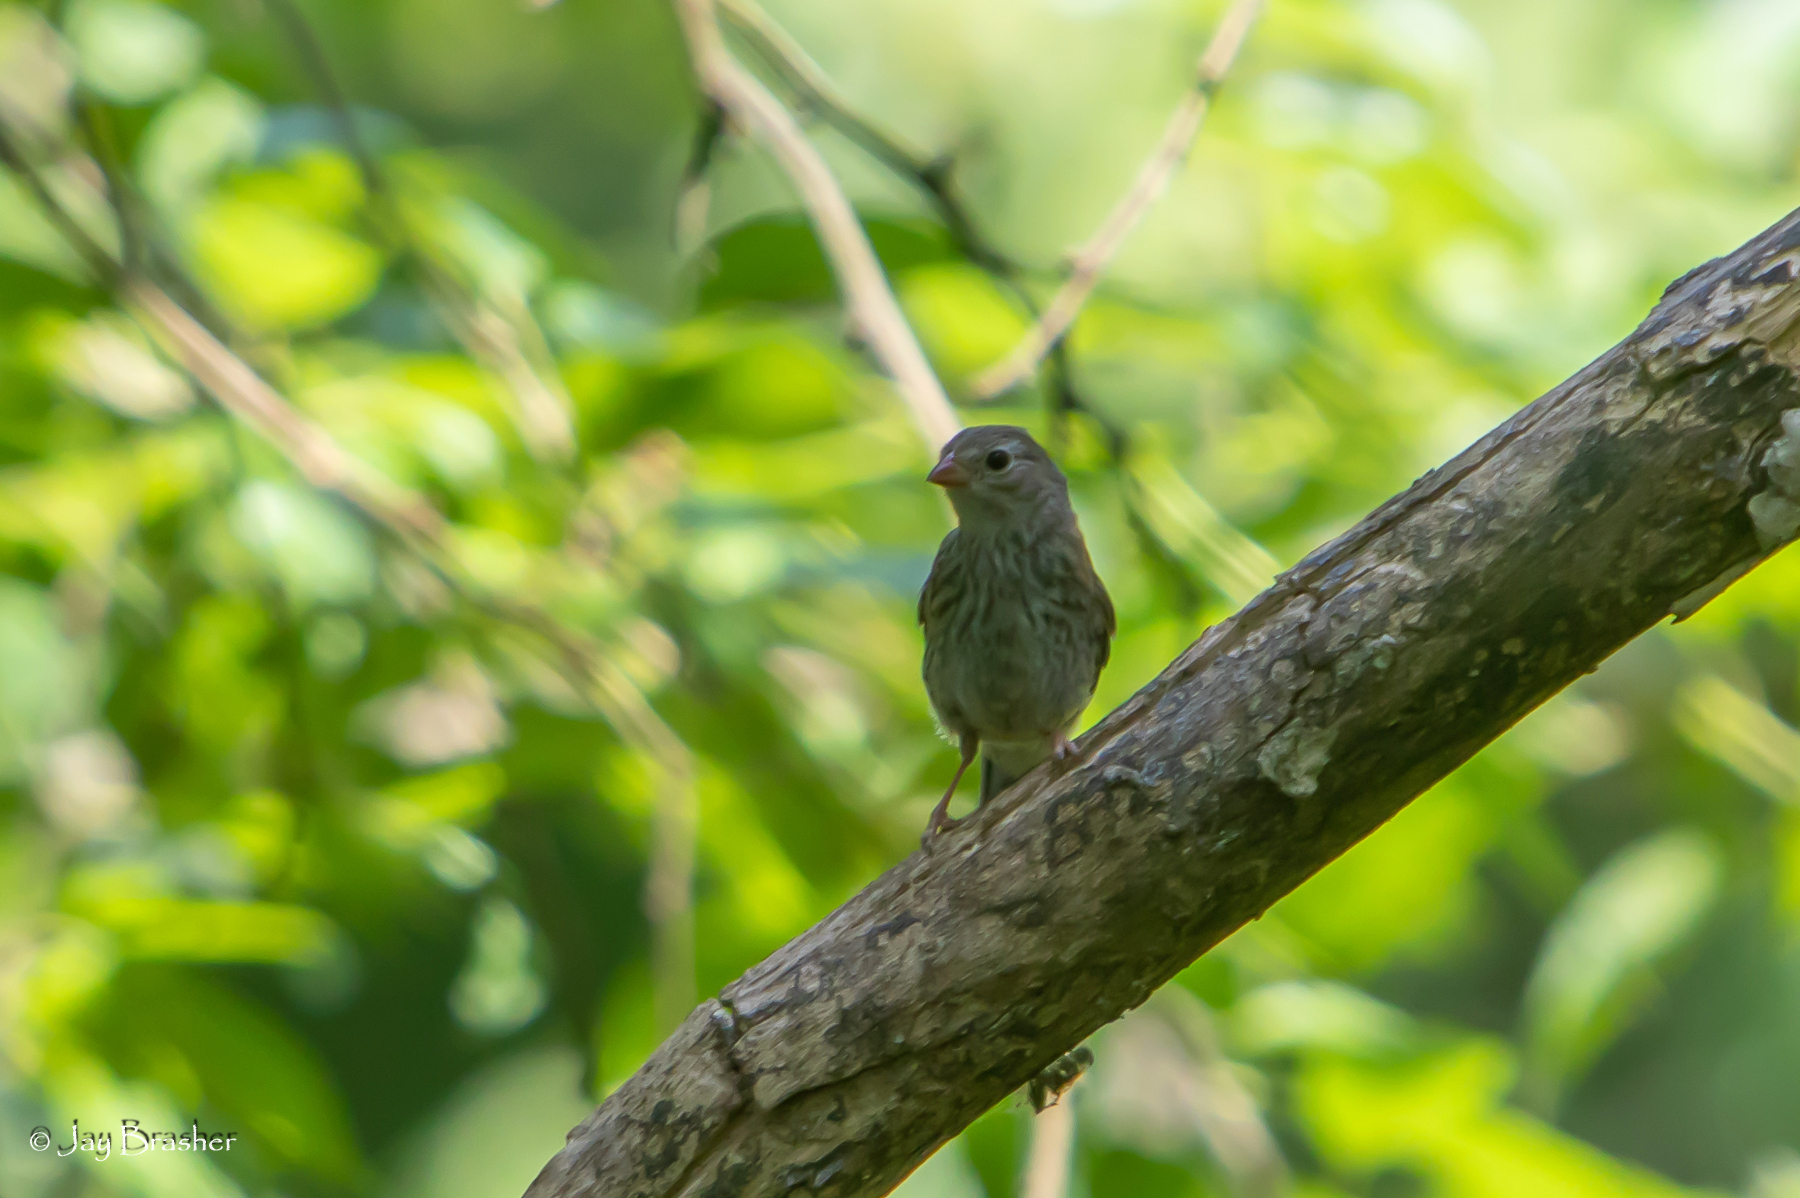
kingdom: Animalia
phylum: Chordata
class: Aves
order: Passeriformes
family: Passerellidae
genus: Spizella
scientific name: Spizella pusilla
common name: Field sparrow
